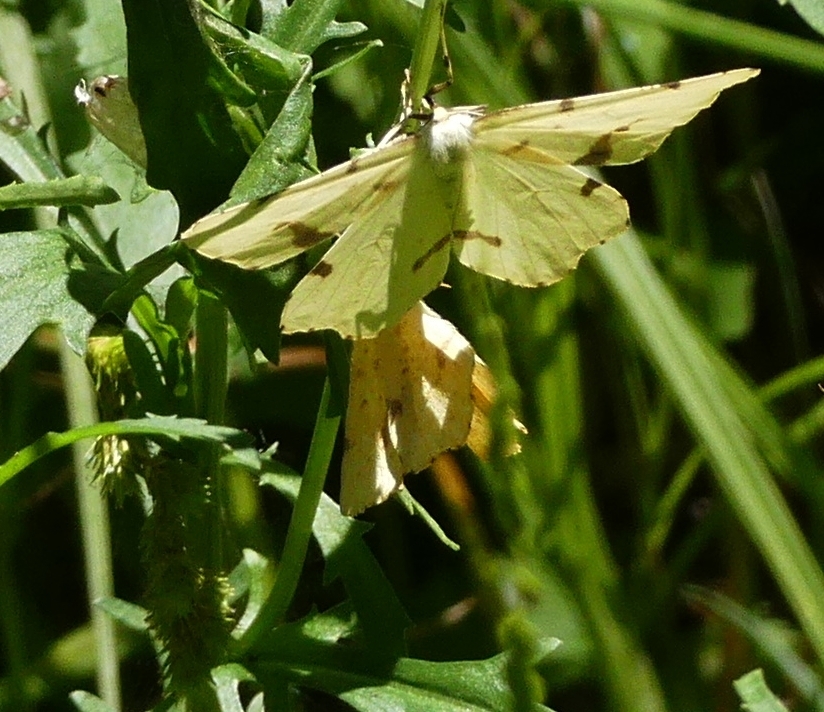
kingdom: Animalia
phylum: Arthropoda
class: Insecta
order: Lepidoptera
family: Geometridae
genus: Xanthotype
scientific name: Xanthotype
